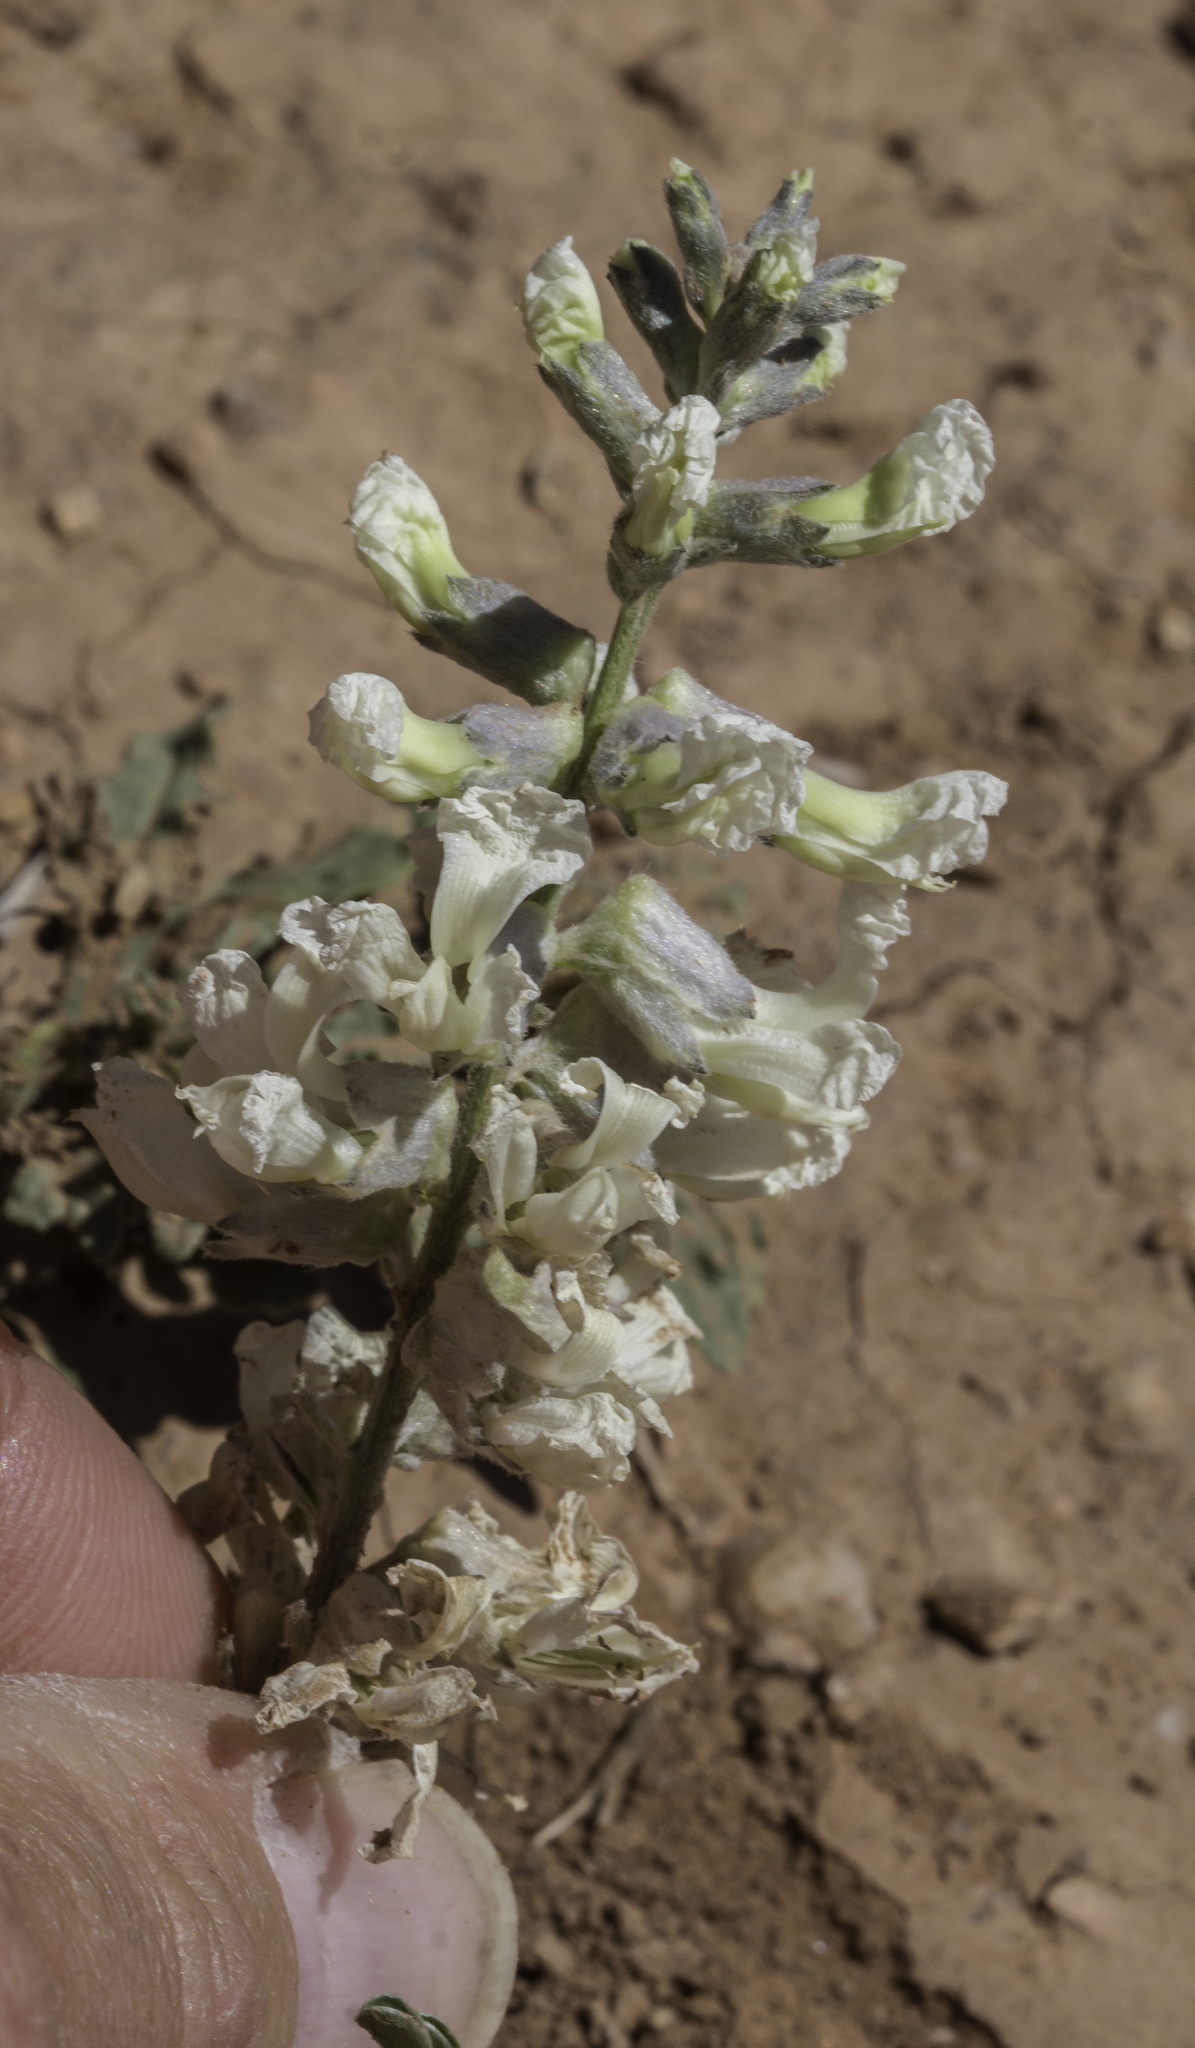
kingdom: Plantae
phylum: Tracheophyta
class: Magnoliopsida
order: Fabales
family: Fabaceae
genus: Sophora
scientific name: Sophora nuttalliana
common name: Silky sophora
